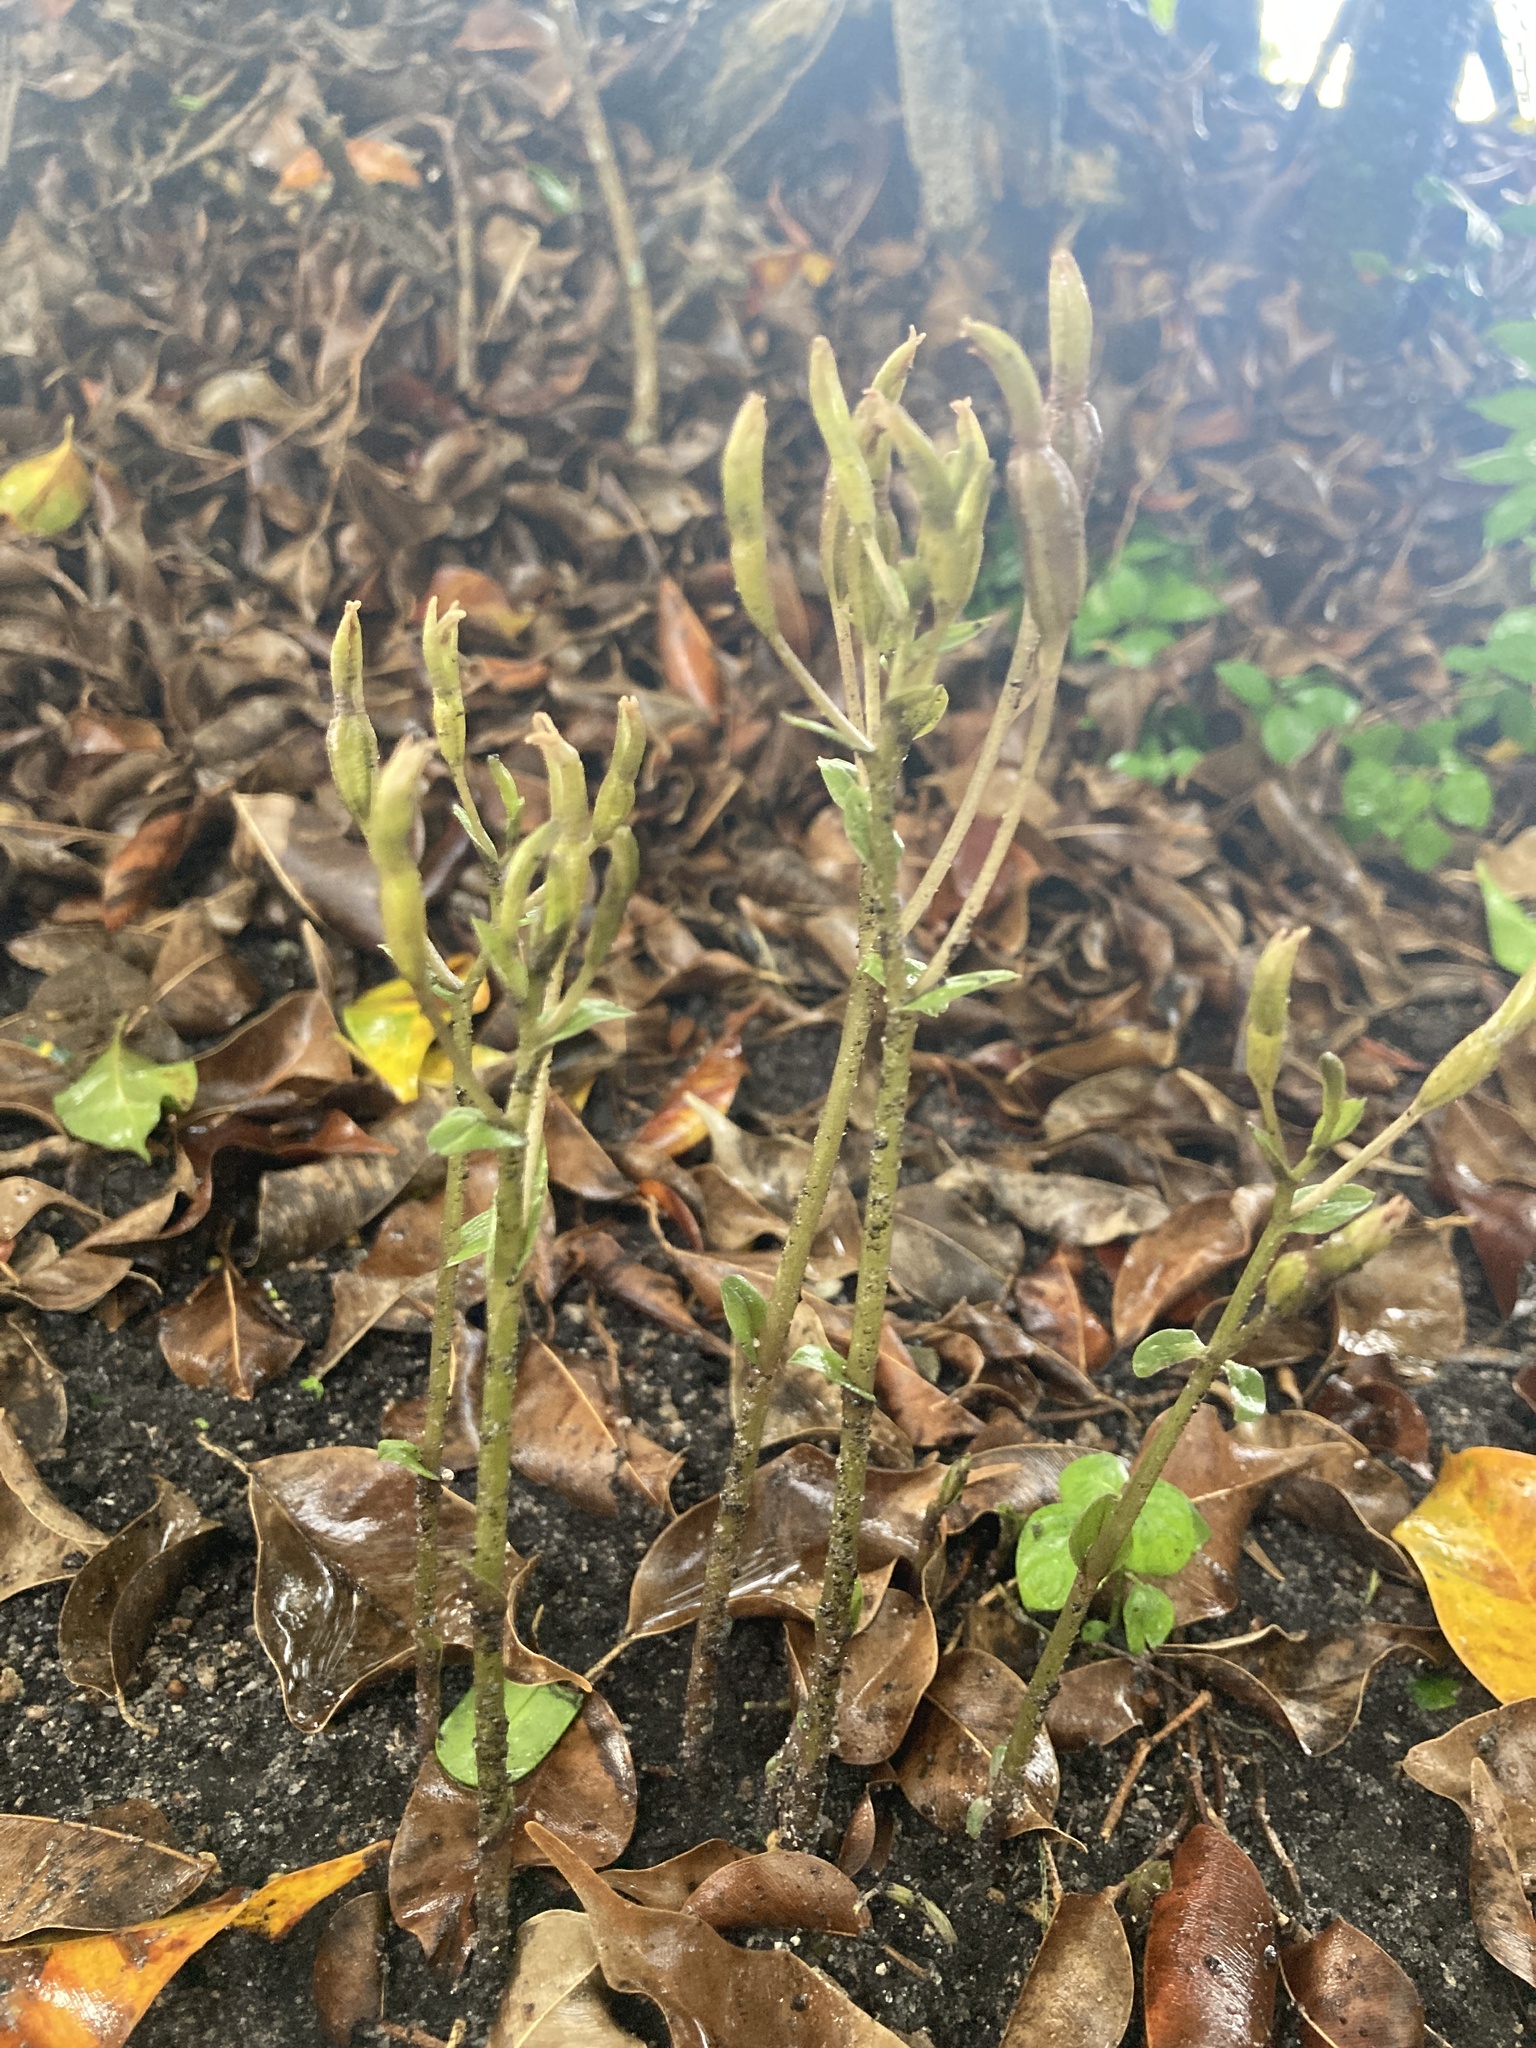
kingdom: Plantae
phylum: Tracheophyta
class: Liliopsida
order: Asparagales
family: Orchidaceae
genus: Triphora
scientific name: Triphora gentianoides
